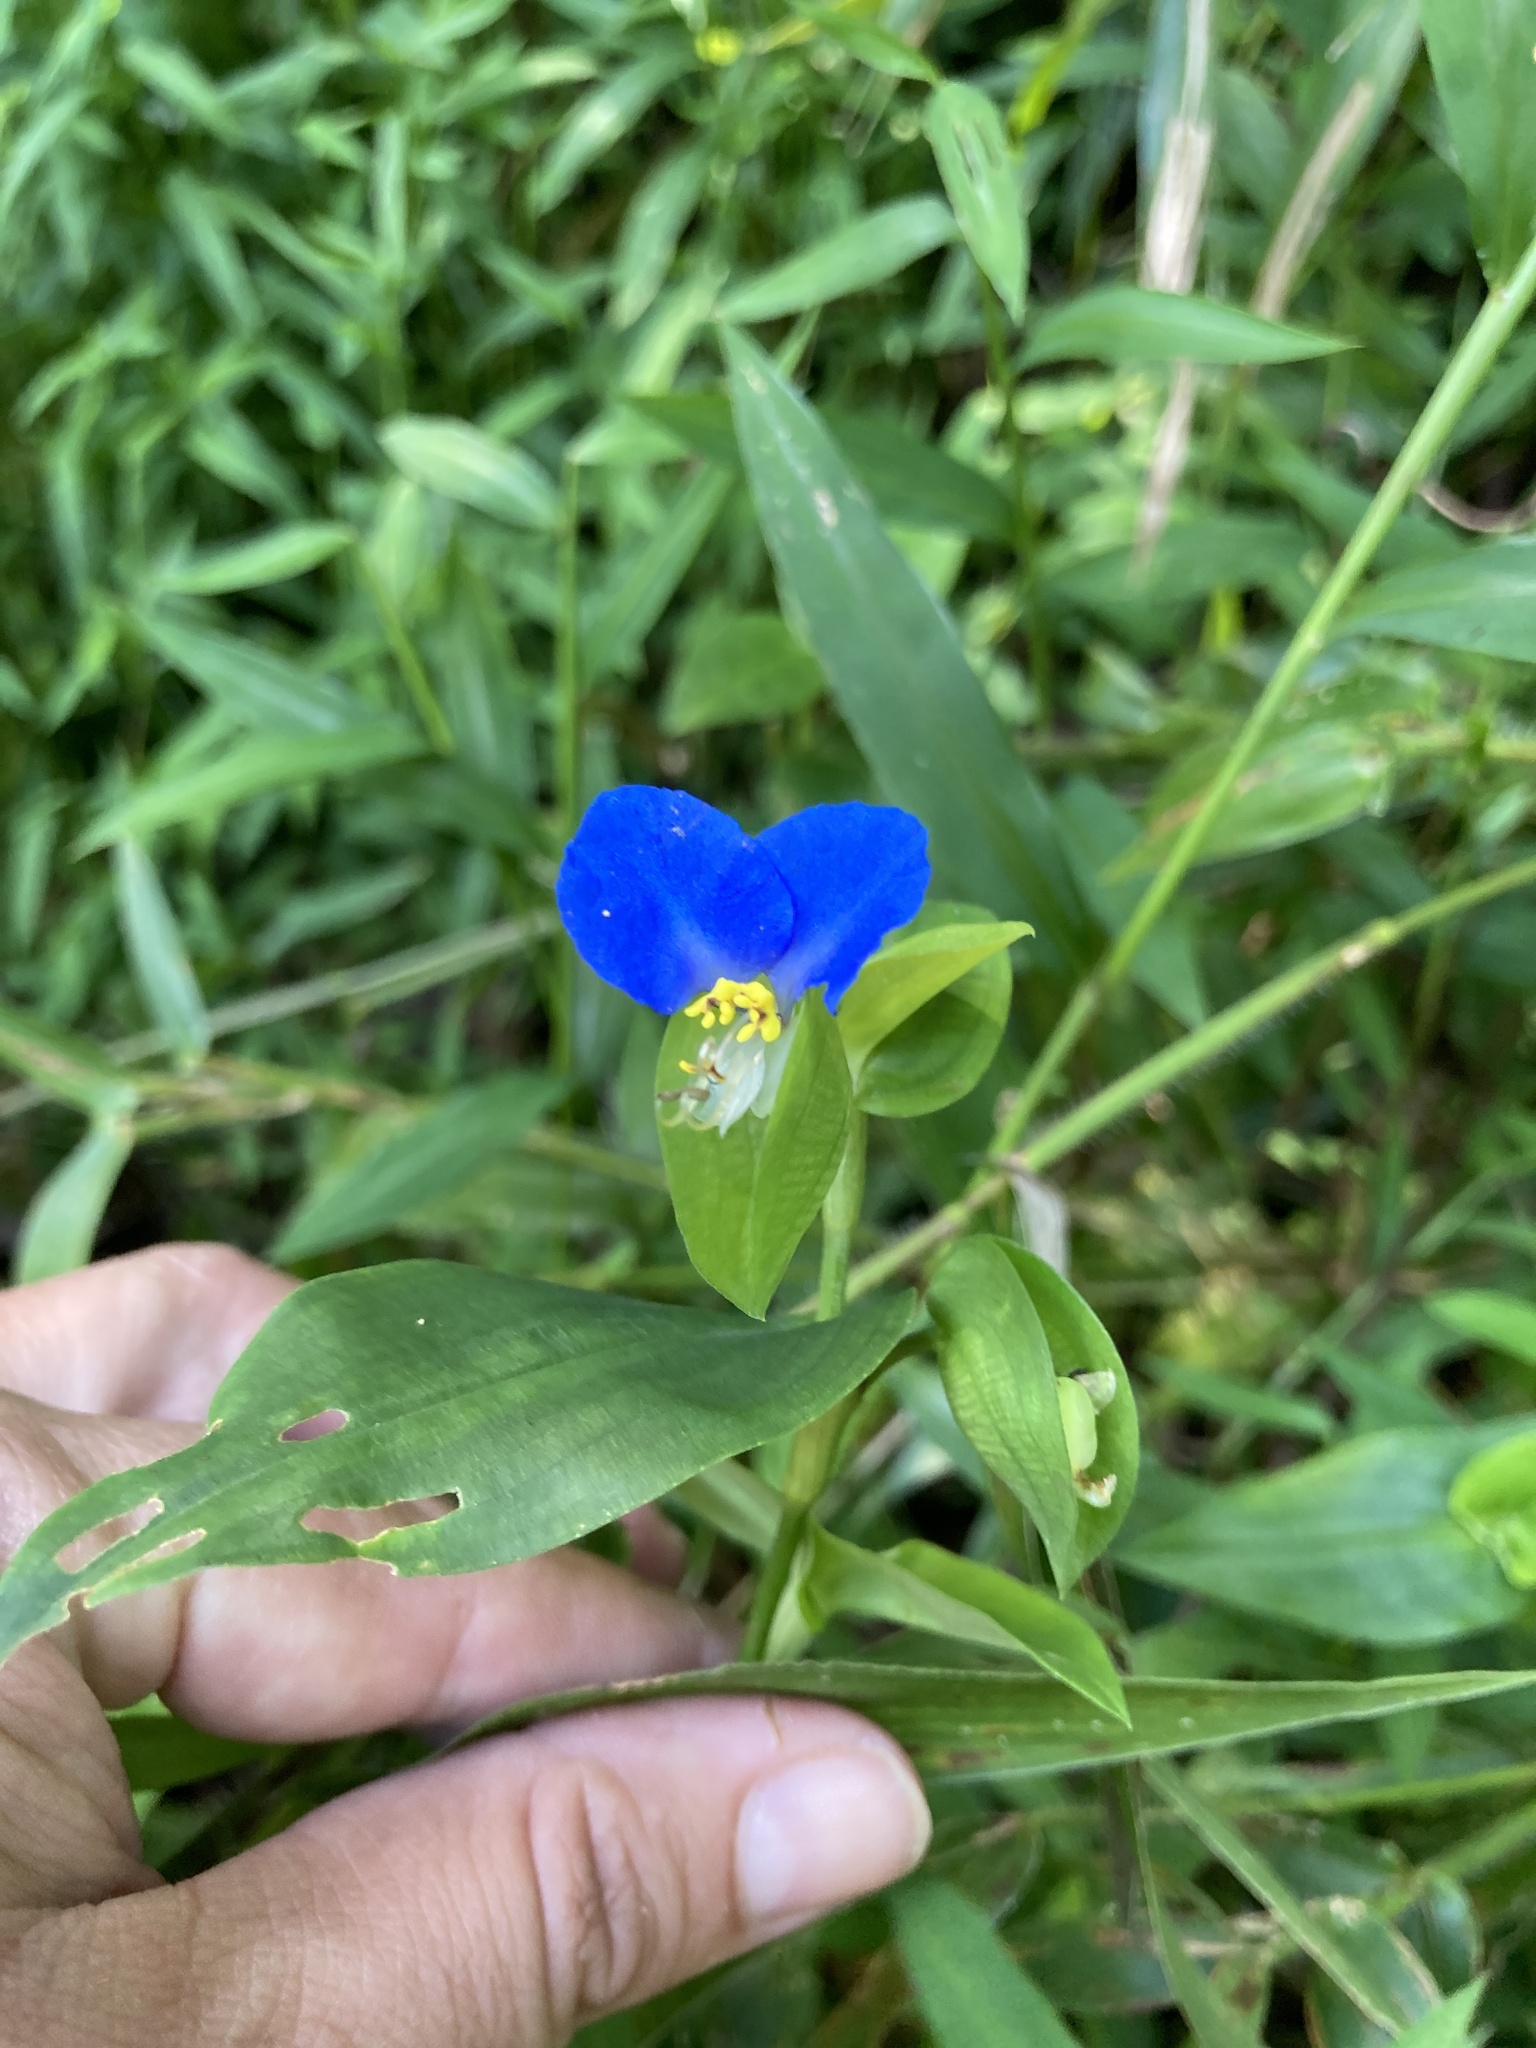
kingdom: Plantae
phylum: Tracheophyta
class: Liliopsida
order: Commelinales
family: Commelinaceae
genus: Commelina
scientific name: Commelina communis
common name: Asiatic dayflower
